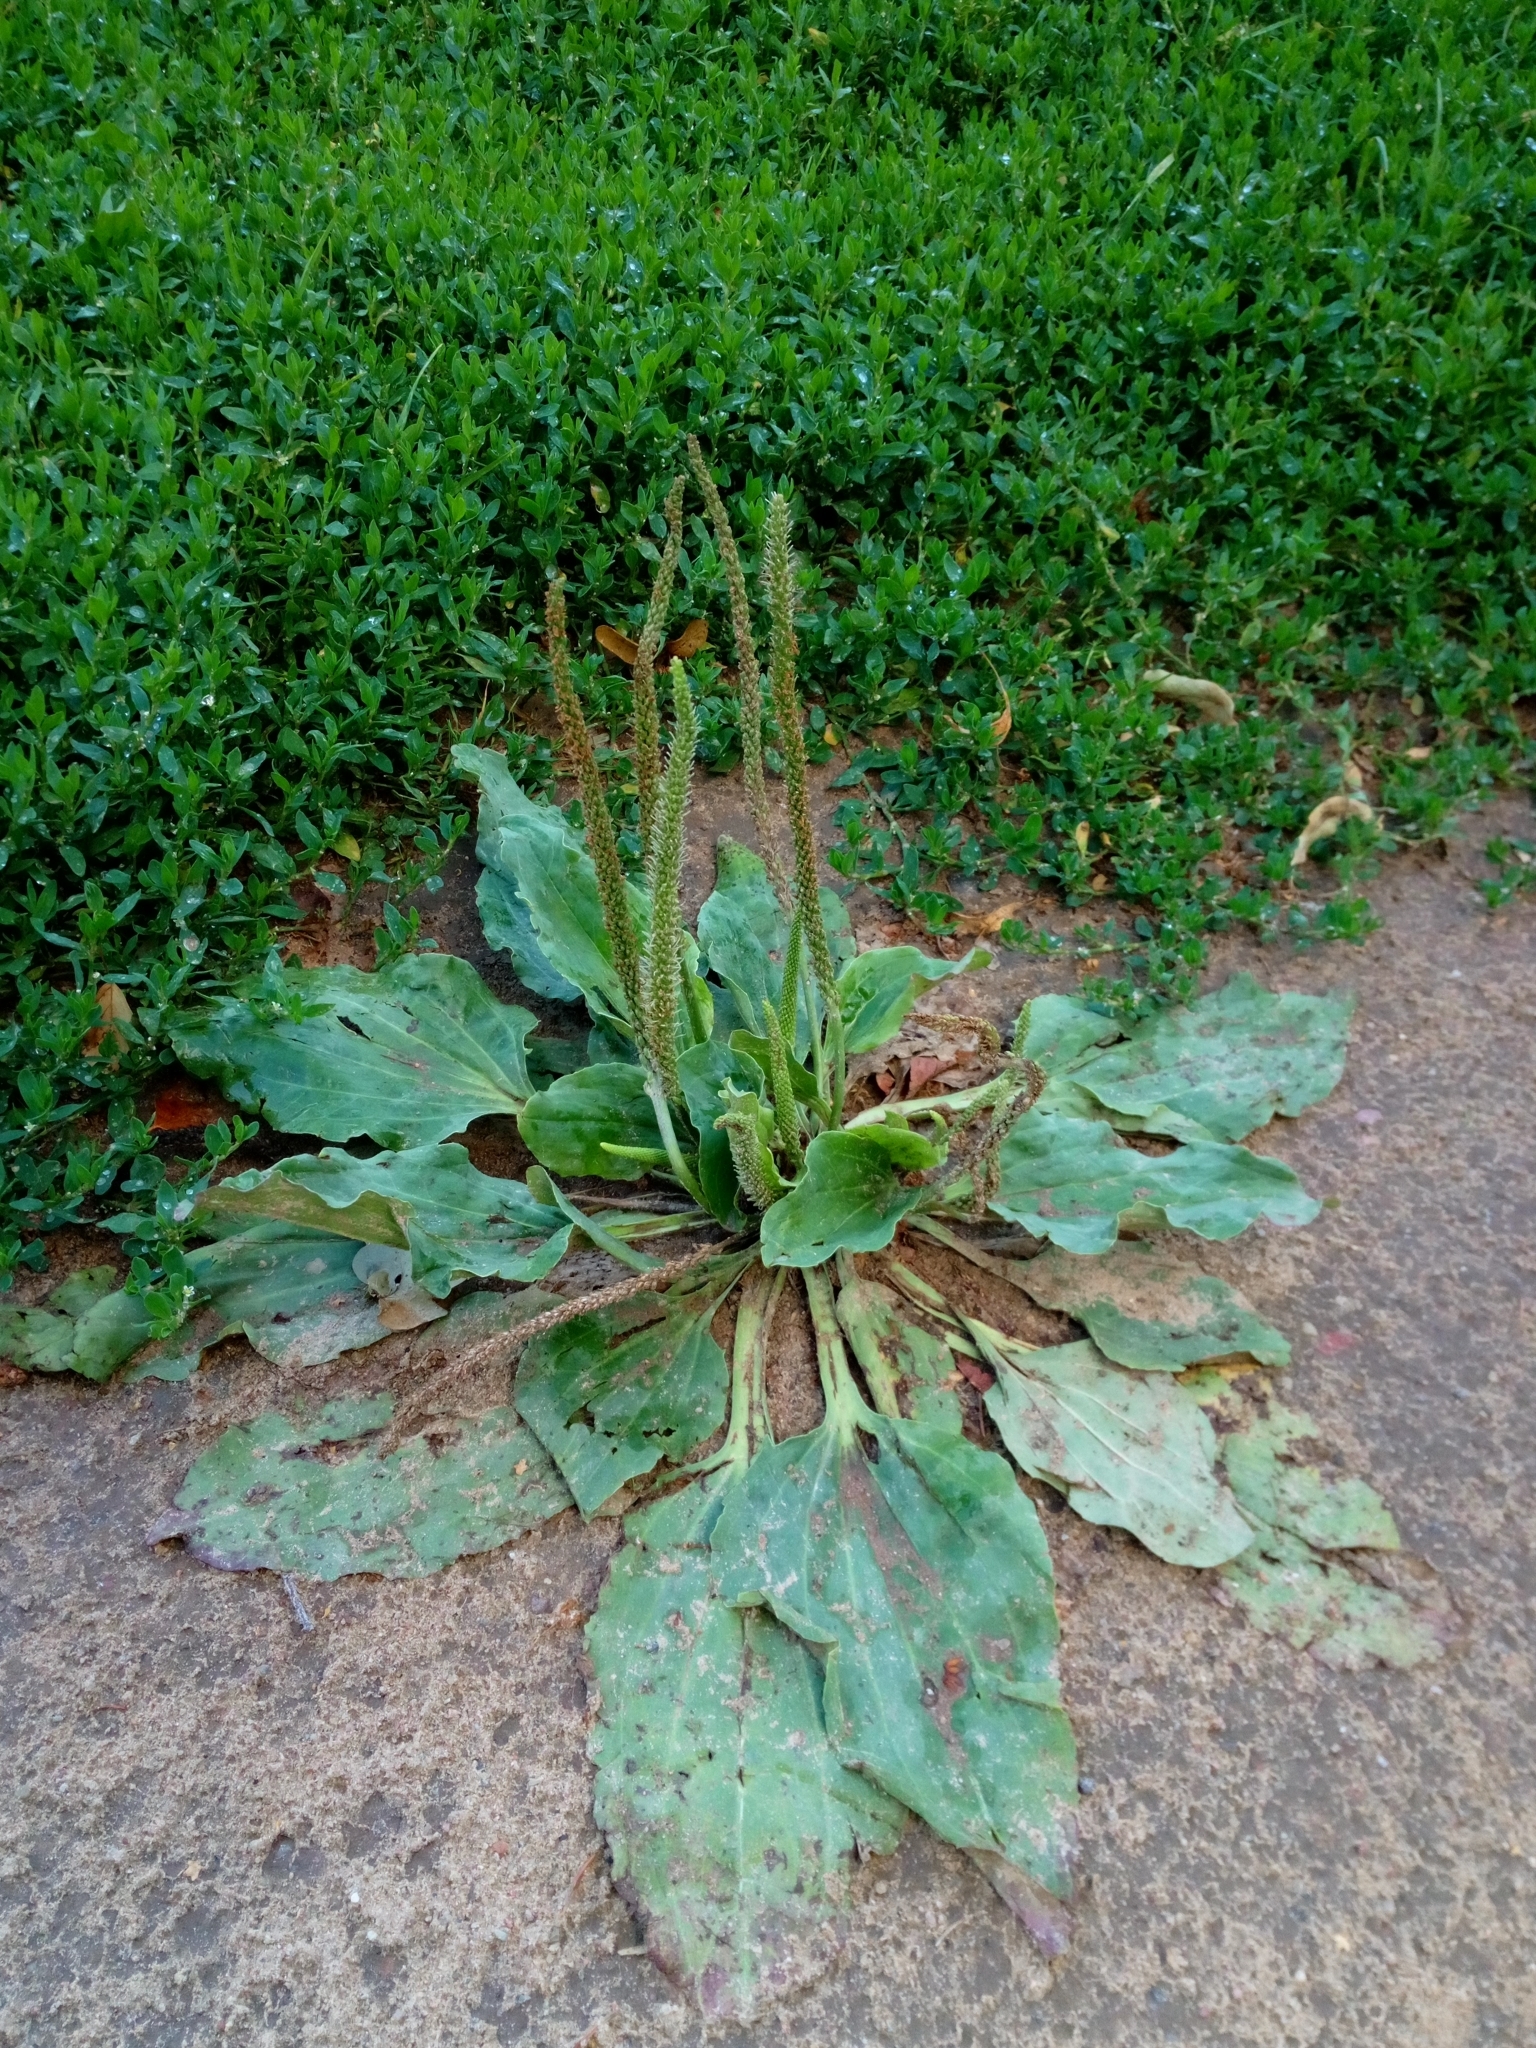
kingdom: Plantae
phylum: Tracheophyta
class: Magnoliopsida
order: Lamiales
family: Plantaginaceae
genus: Plantago
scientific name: Plantago major
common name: Common plantain
